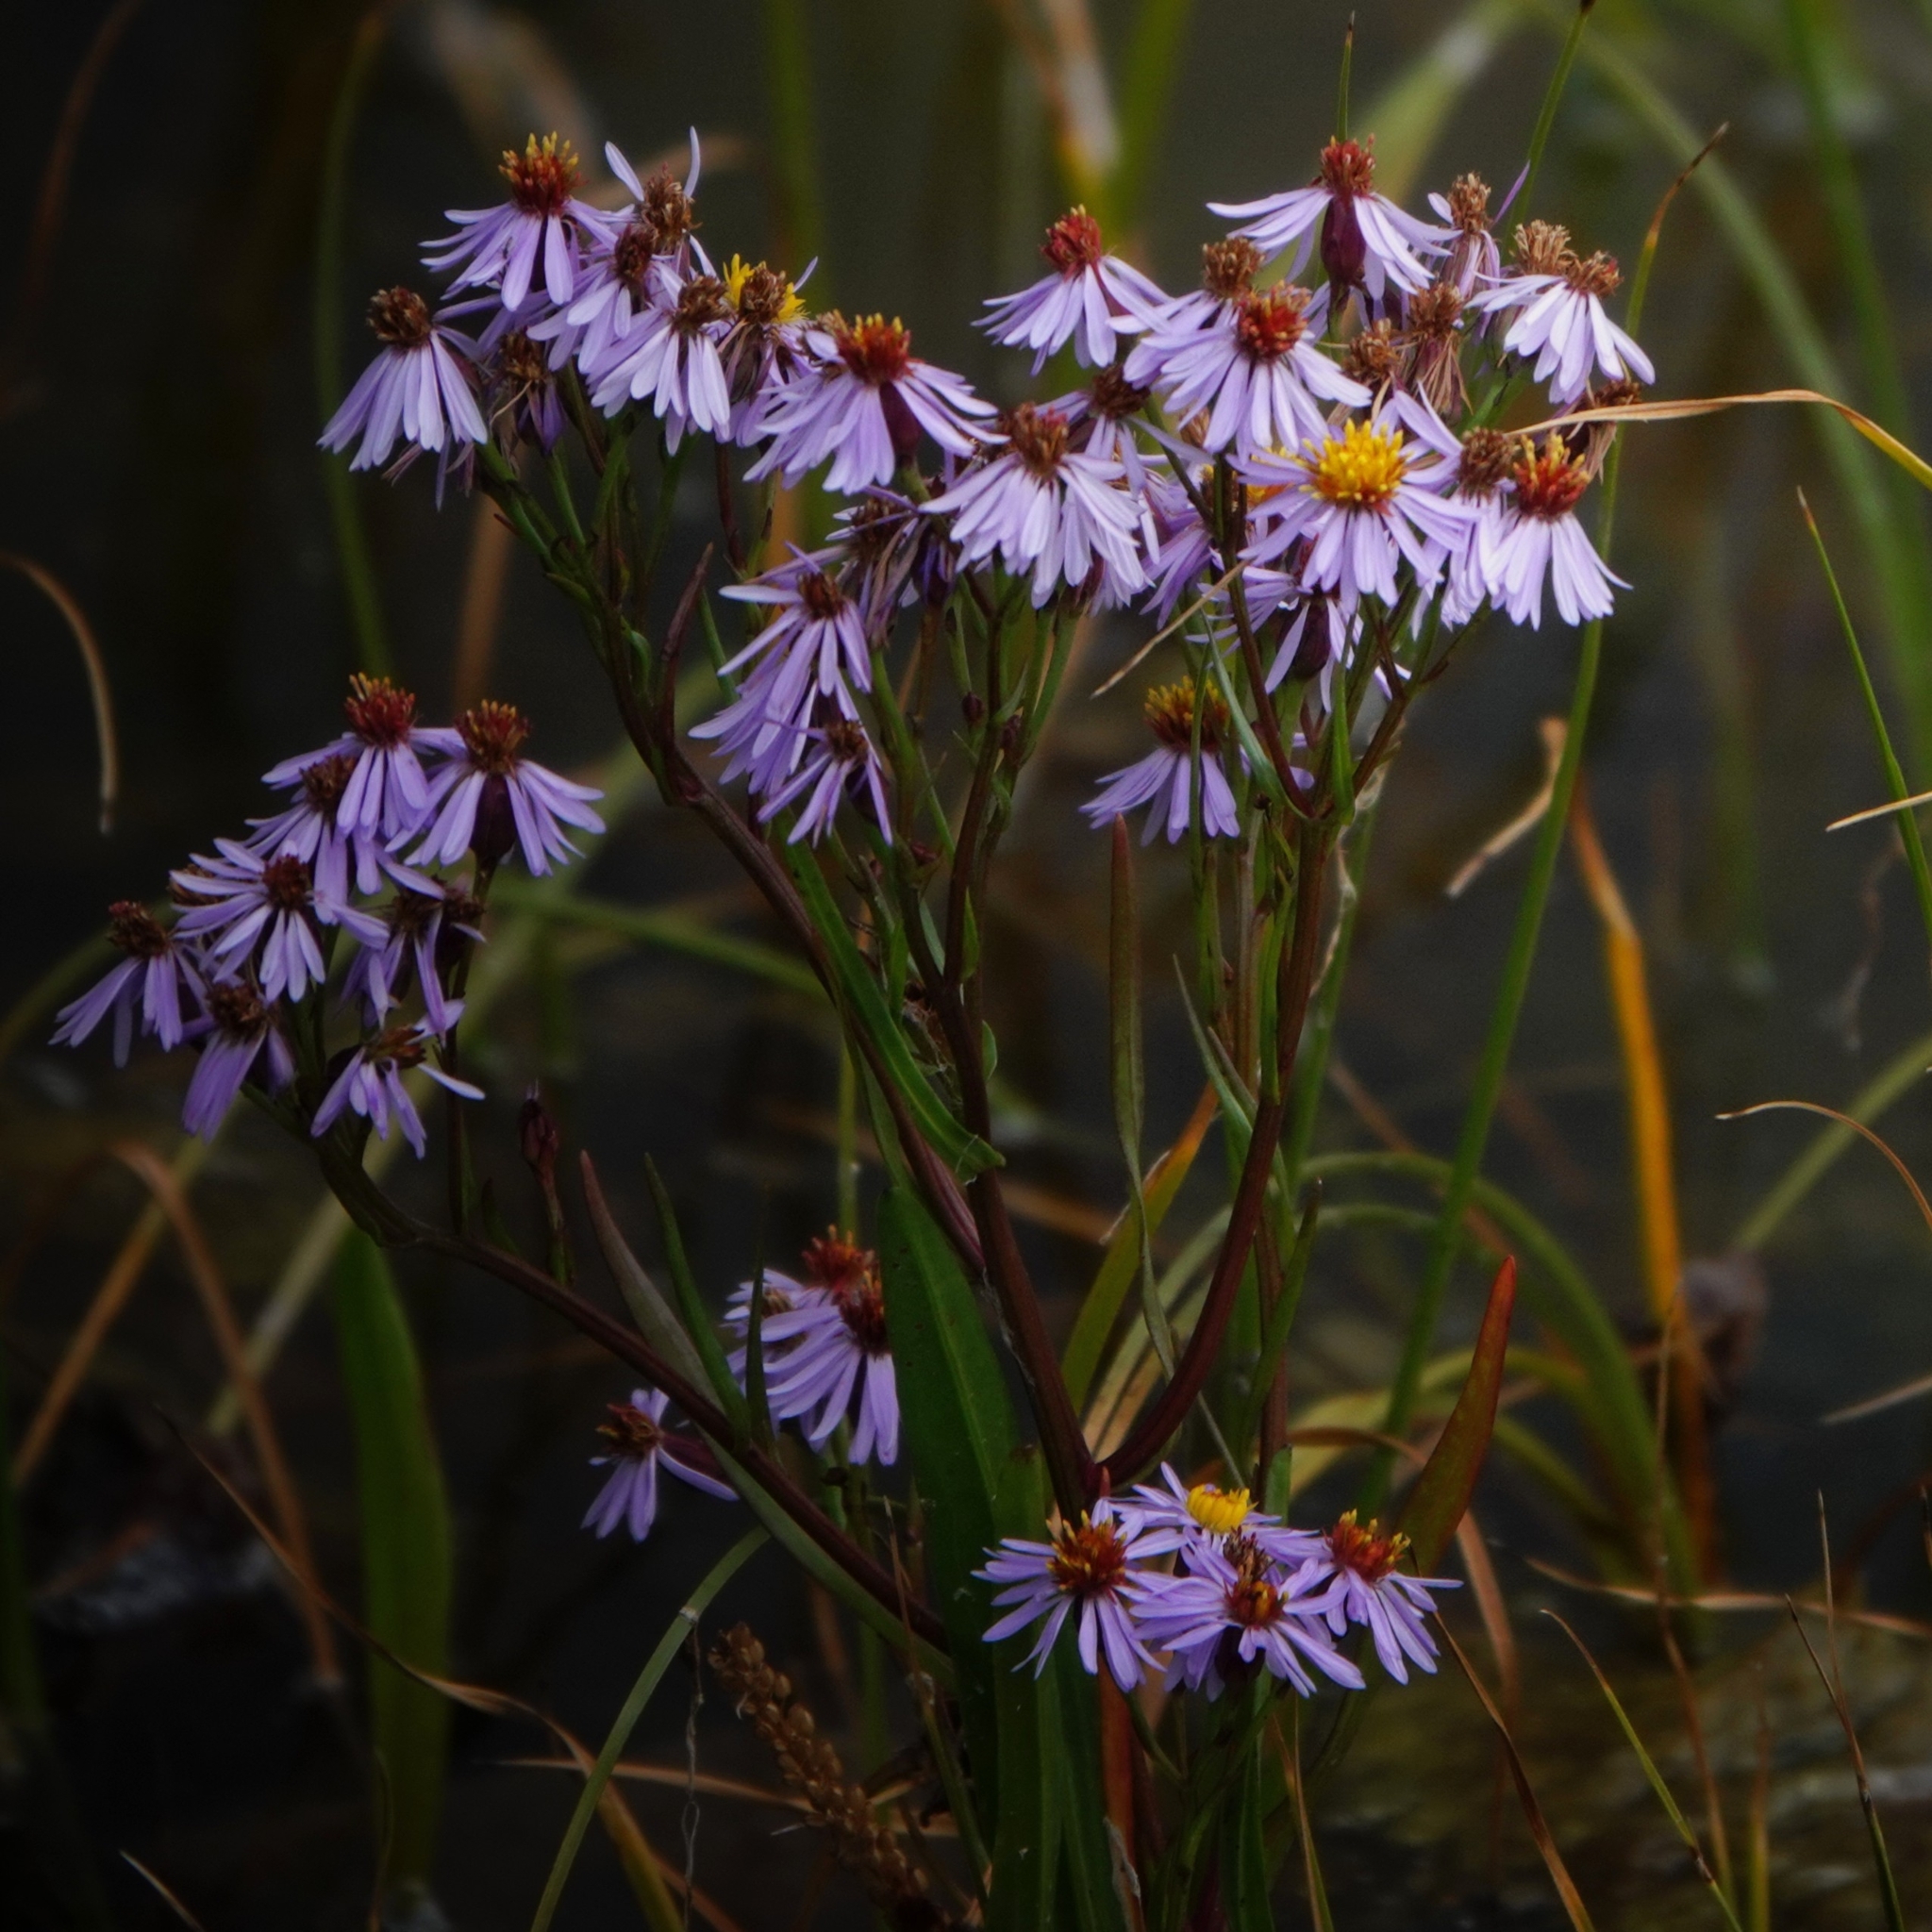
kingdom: Plantae
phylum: Tracheophyta
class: Magnoliopsida
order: Asterales
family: Asteraceae
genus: Tripolium
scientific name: Tripolium pannonicum
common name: Sea aster
